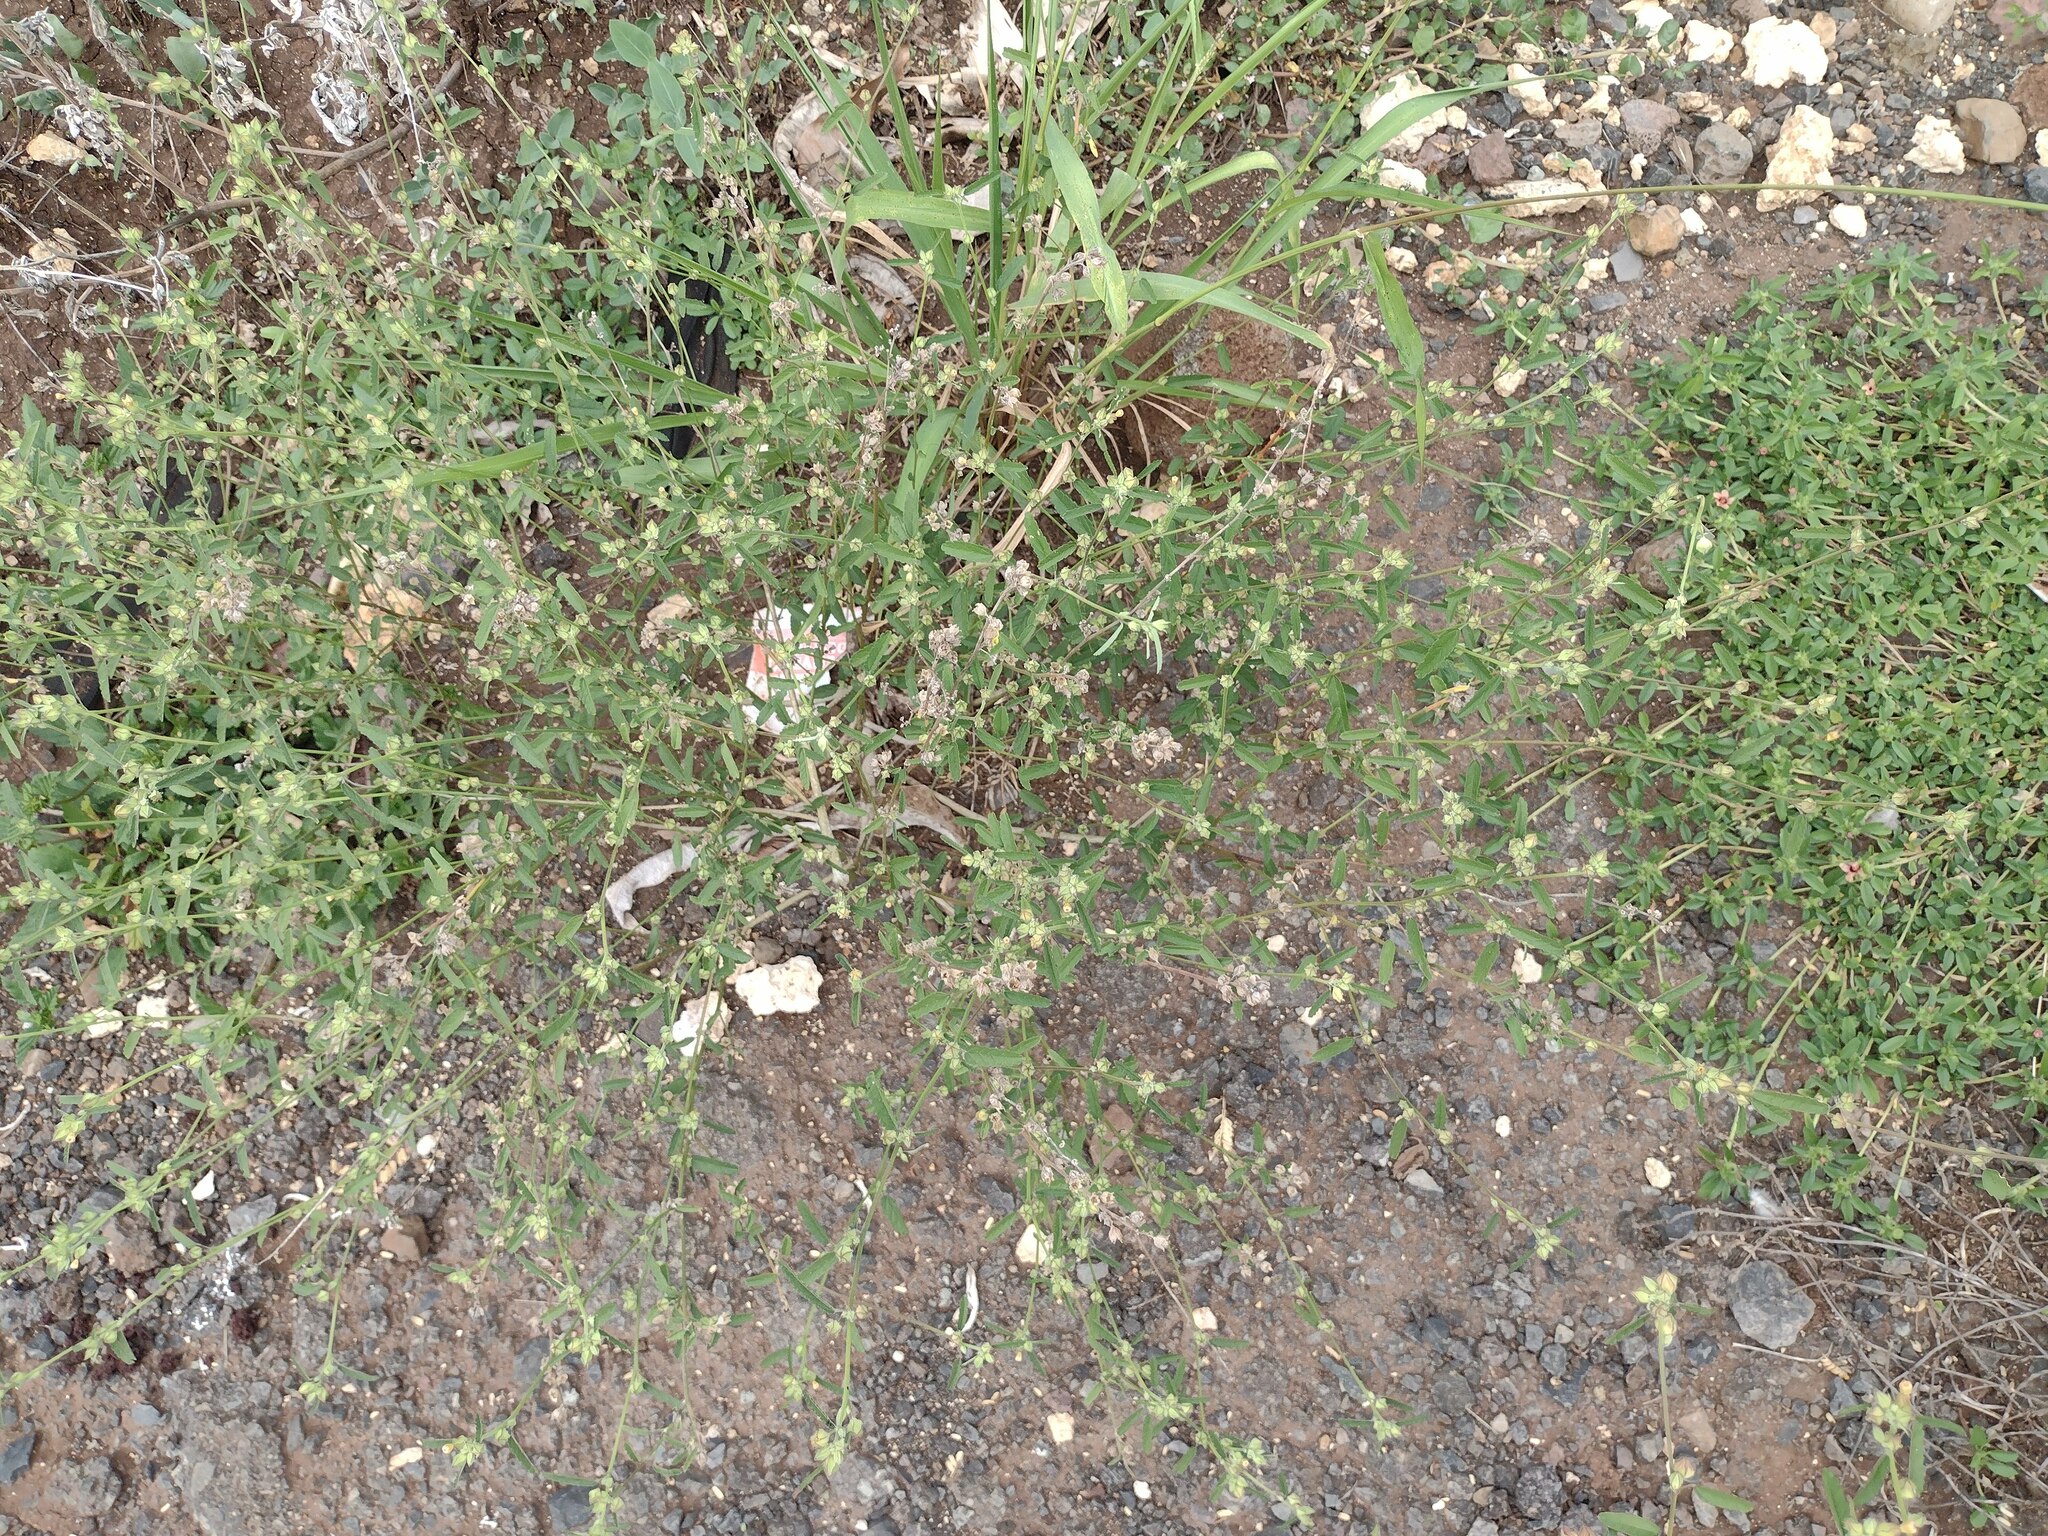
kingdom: Plantae
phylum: Tracheophyta
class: Magnoliopsida
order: Malvales
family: Malvaceae
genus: Sida
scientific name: Sida spinosa
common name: Prickly fanpetals
